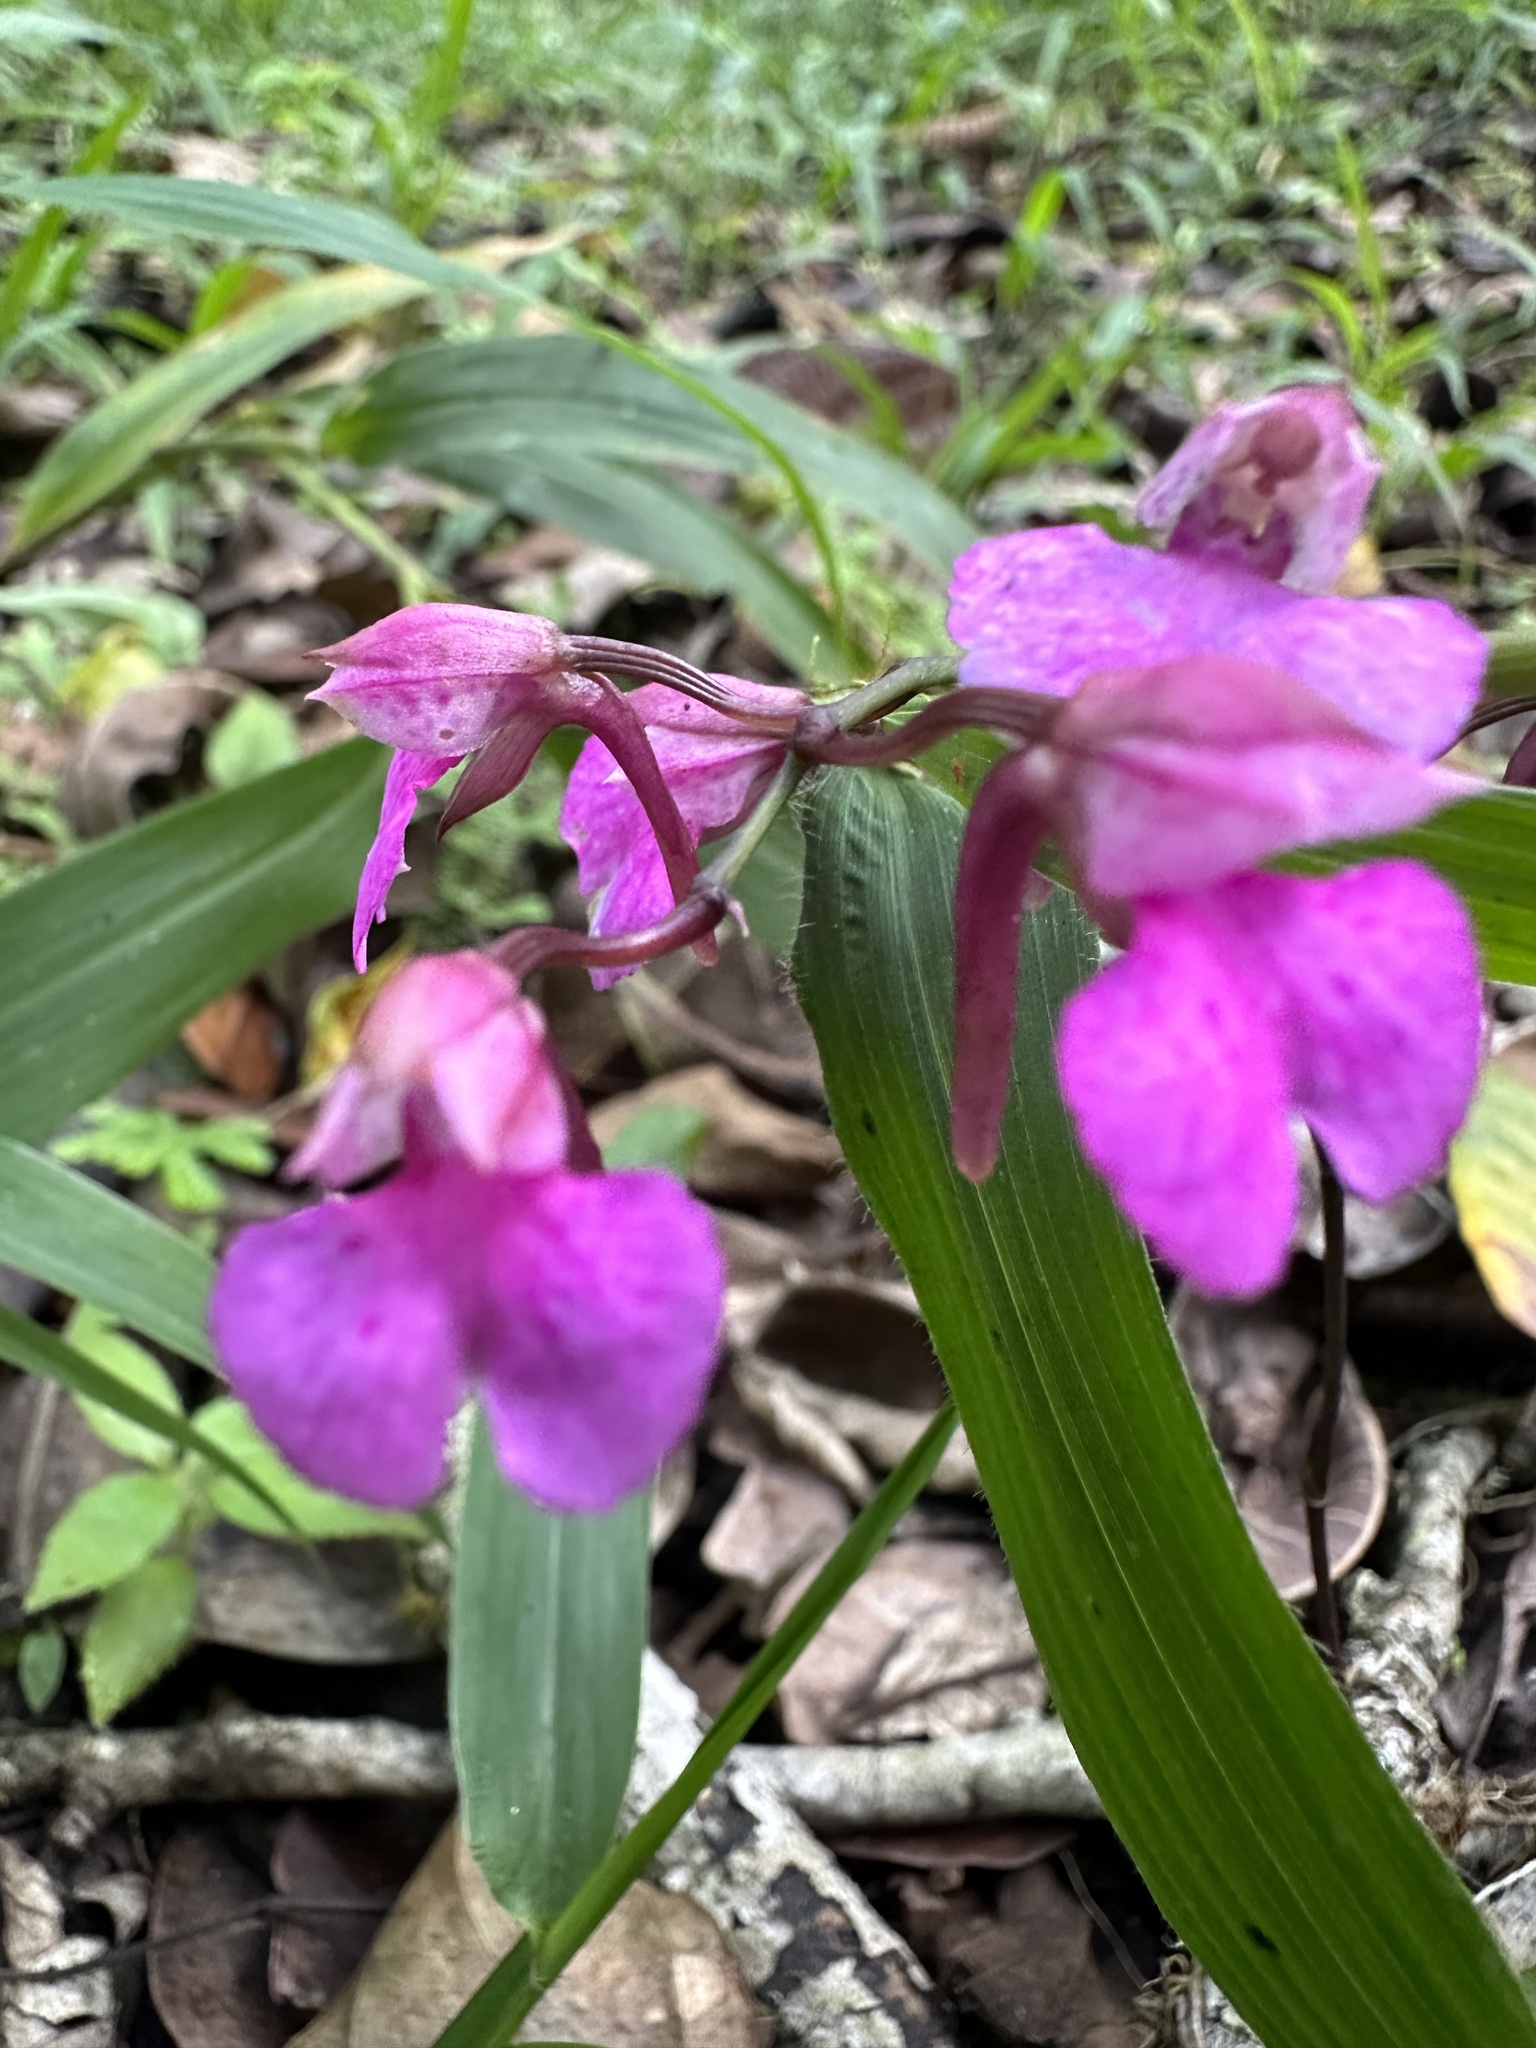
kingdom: Plantae
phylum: Tracheophyta
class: Liliopsida
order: Asparagales
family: Orchidaceae
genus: Comparettia
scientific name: Comparettia falcata
